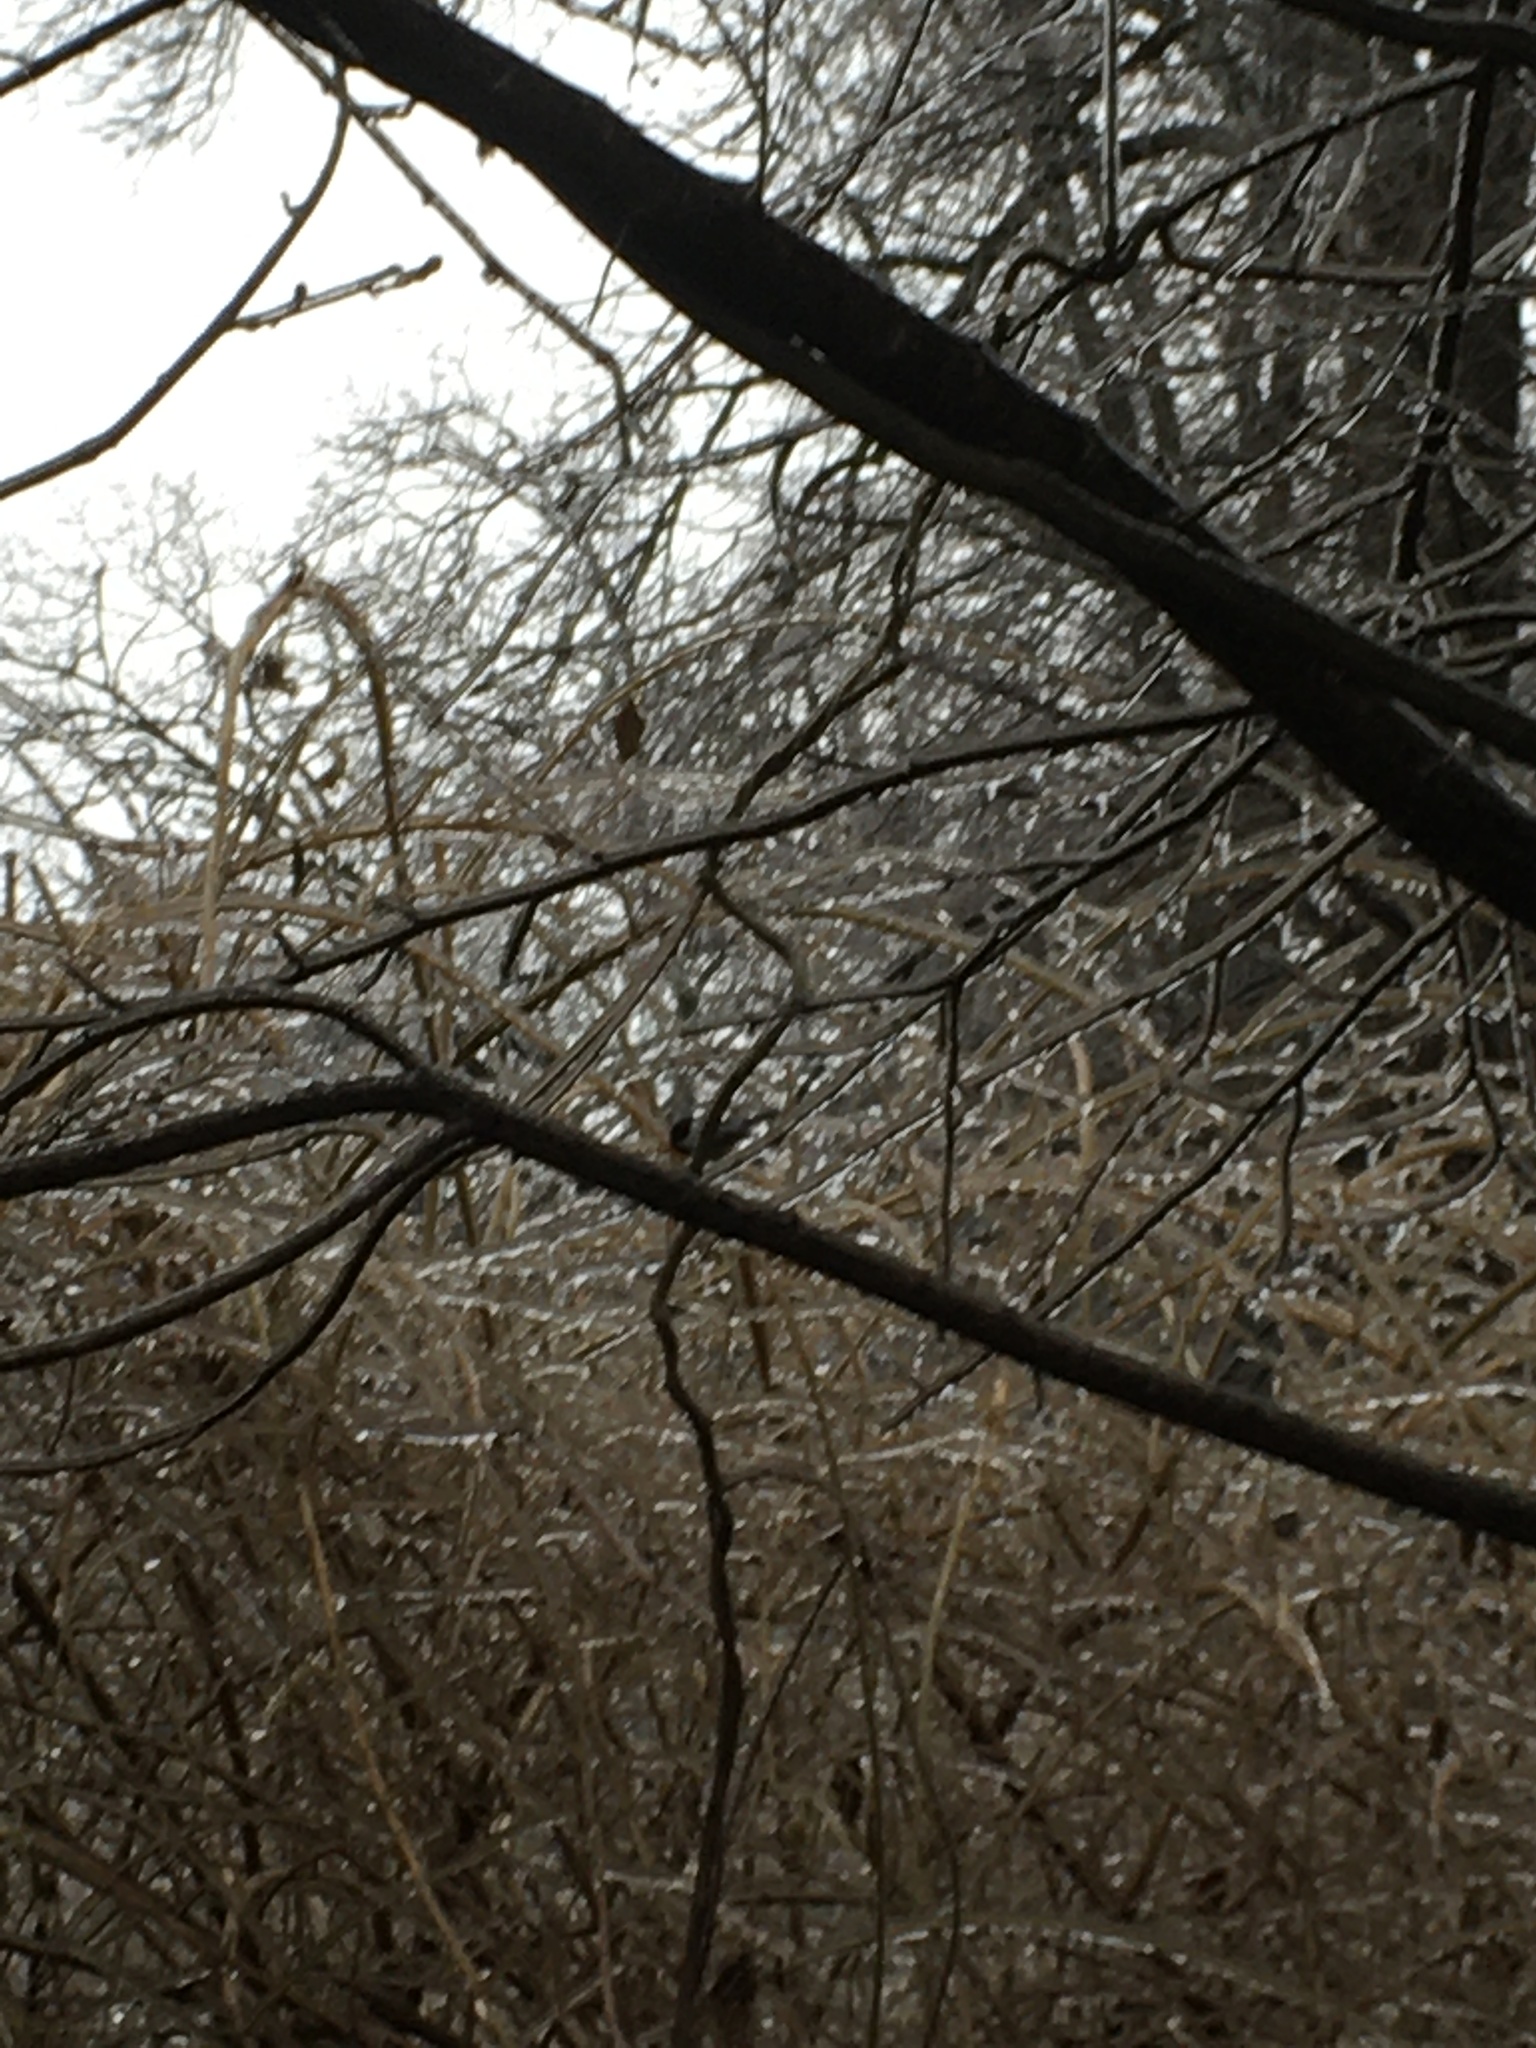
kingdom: Animalia
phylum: Chordata
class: Aves
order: Passeriformes
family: Paridae
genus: Poecile
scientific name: Poecile atricapillus
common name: Black-capped chickadee
